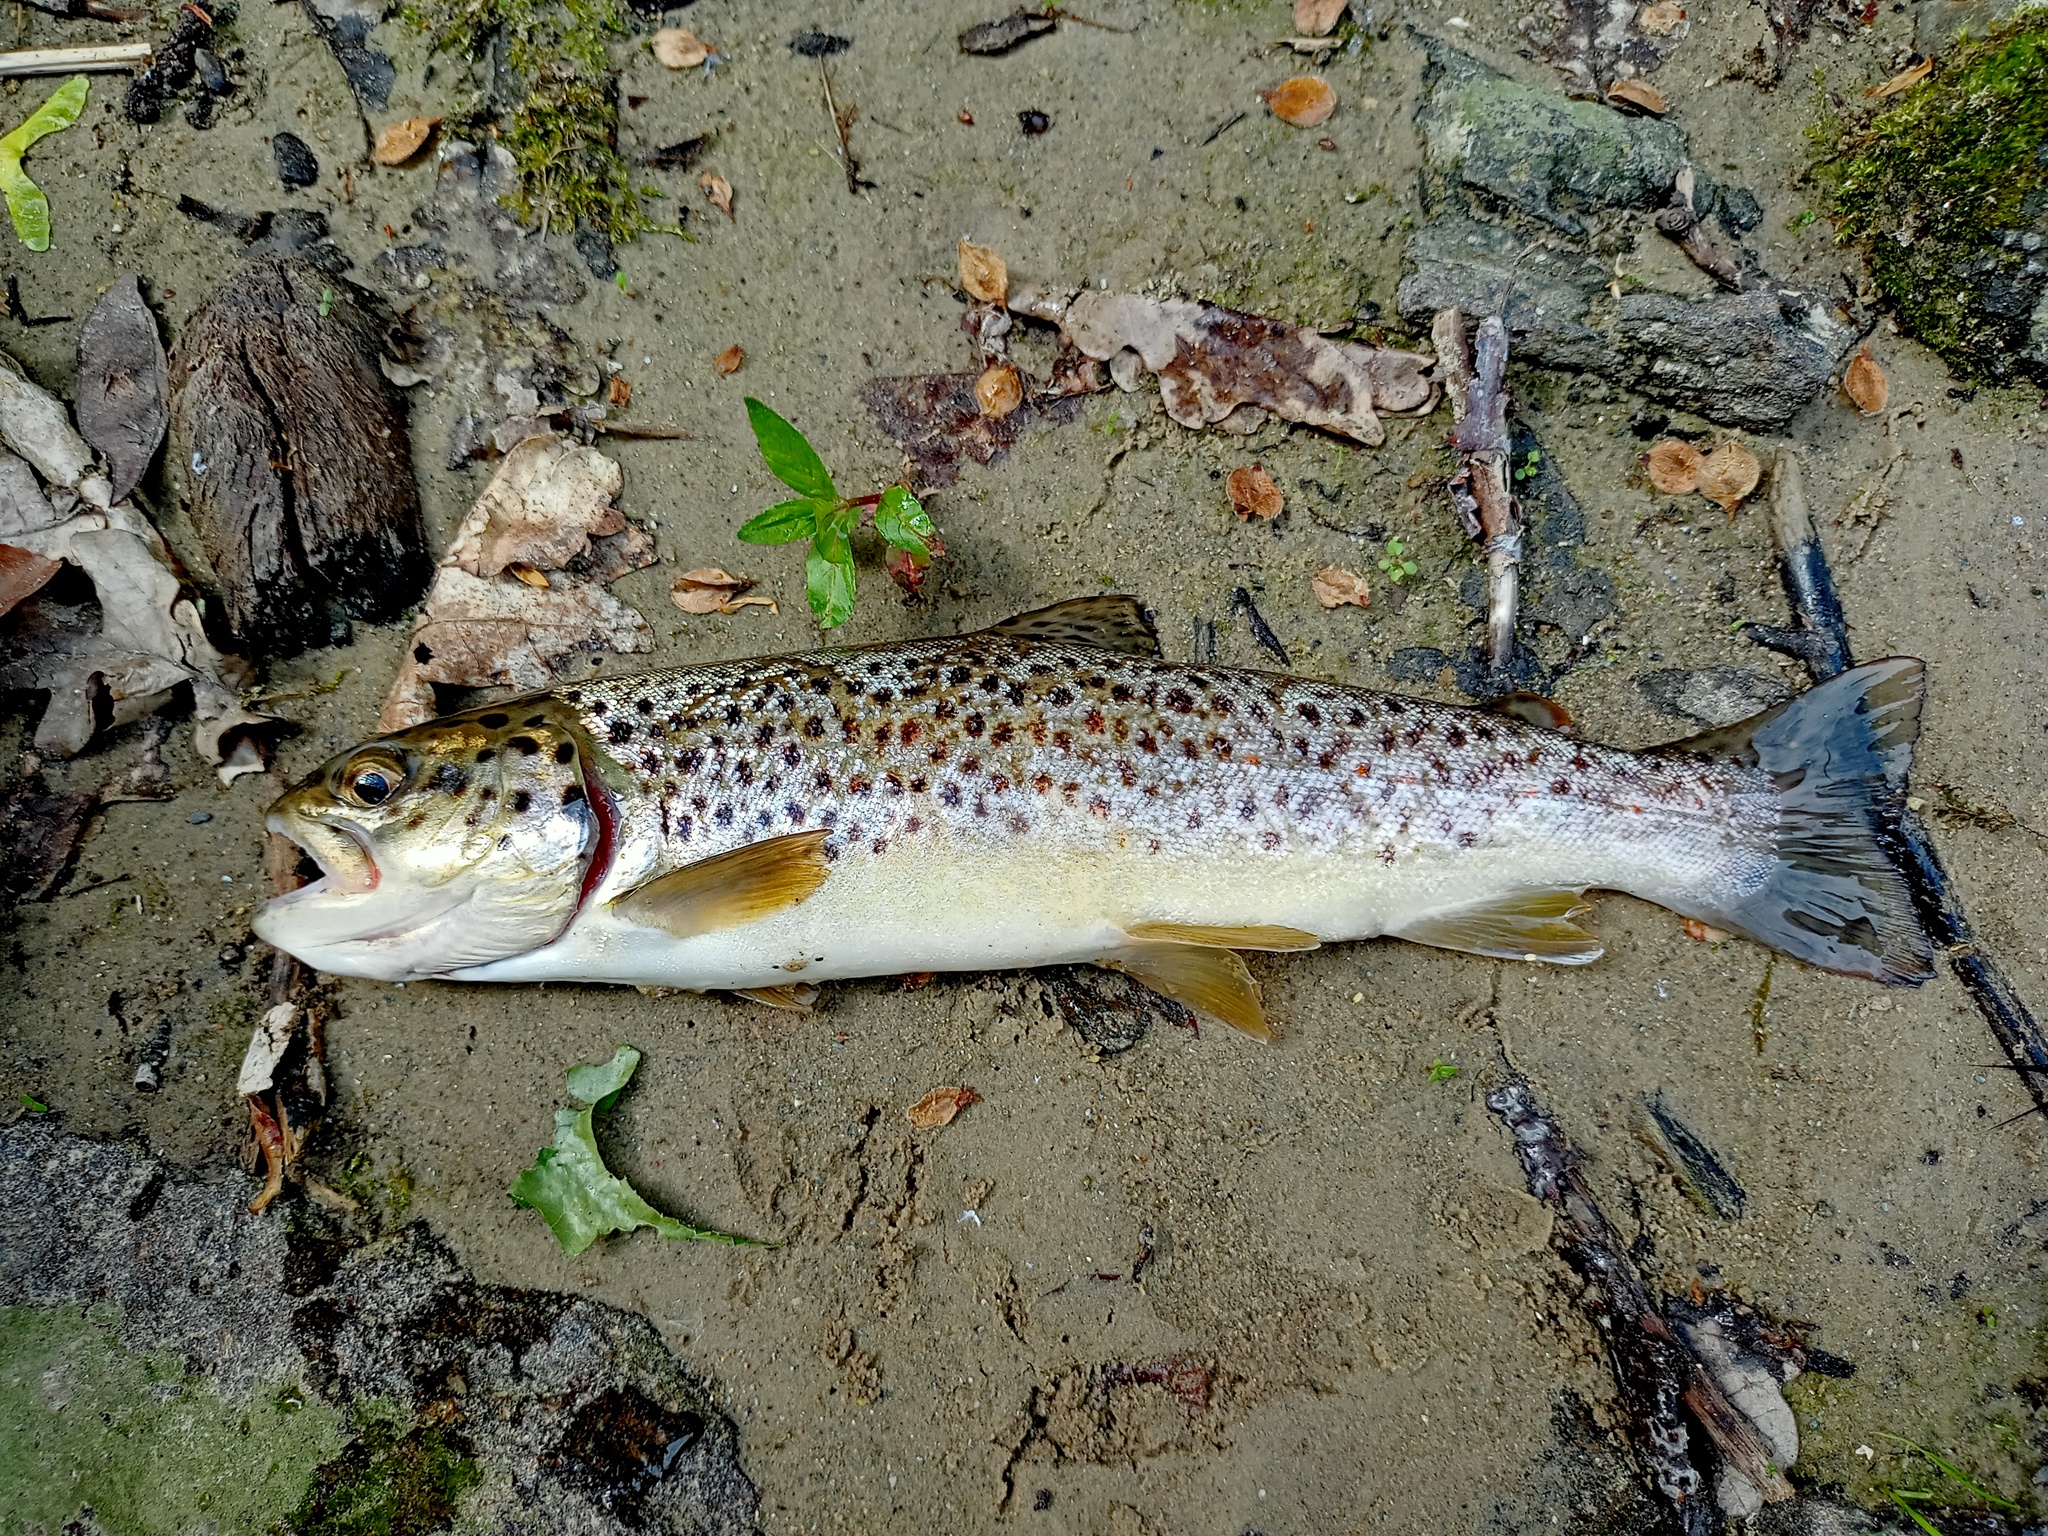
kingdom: Animalia
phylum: Chordata
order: Salmoniformes
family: Salmonidae
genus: Salmo
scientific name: Salmo trutta
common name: Brown trout
